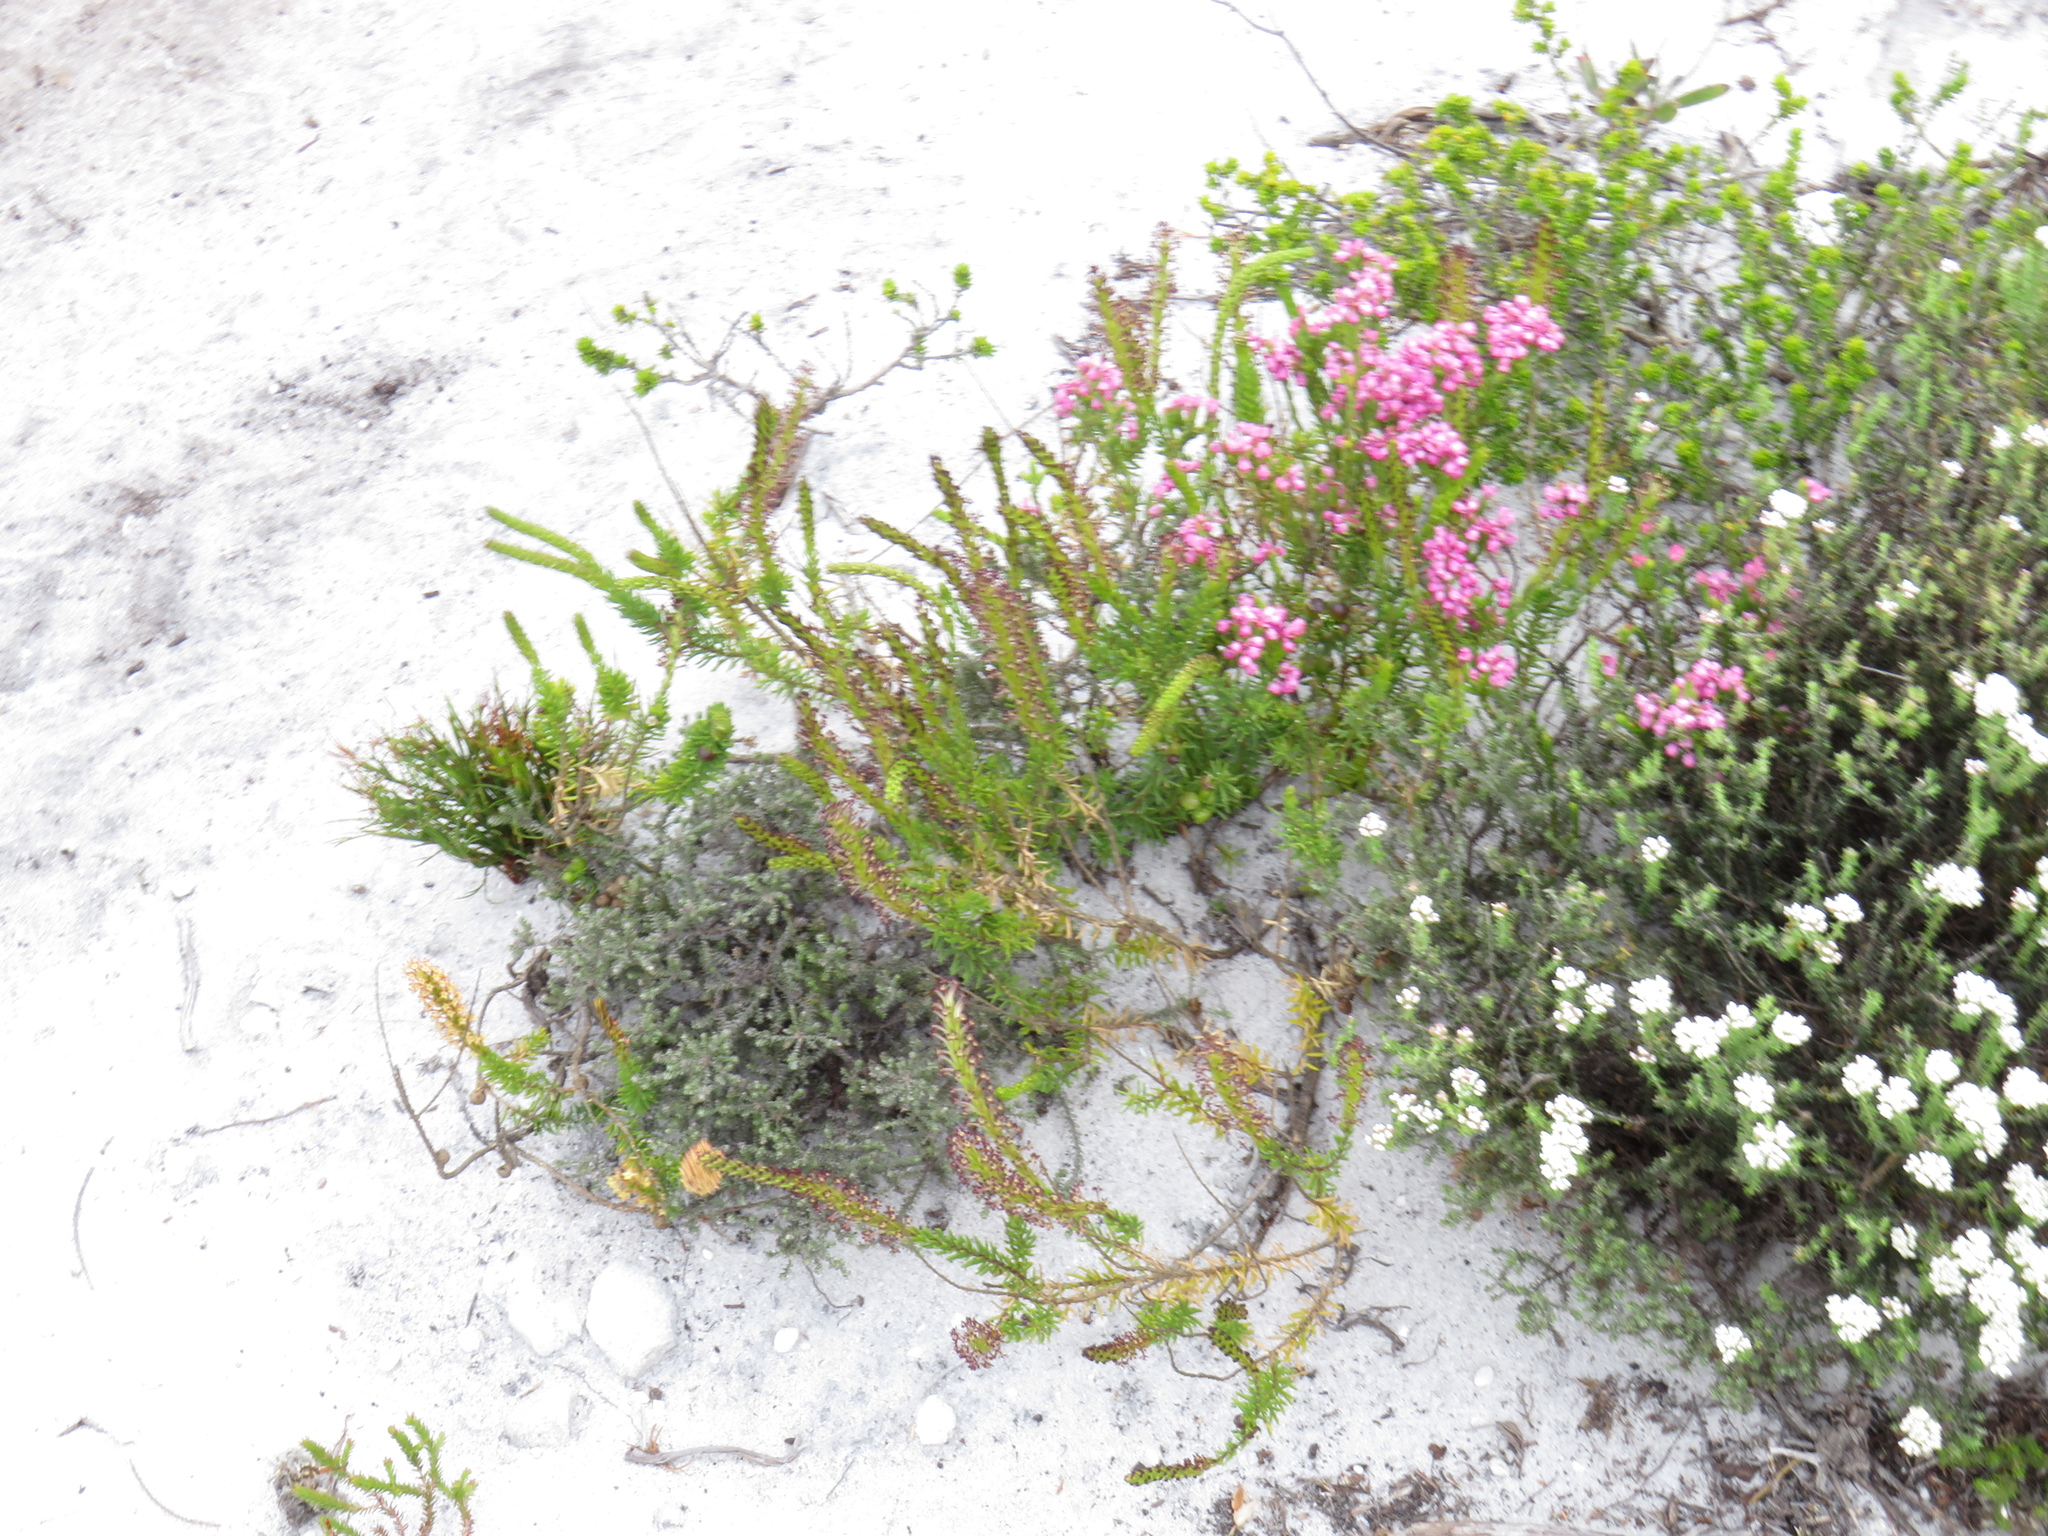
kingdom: Plantae
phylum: Tracheophyta
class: Magnoliopsida
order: Lamiales
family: Scrophulariaceae
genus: Microdon
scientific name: Microdon dubius
